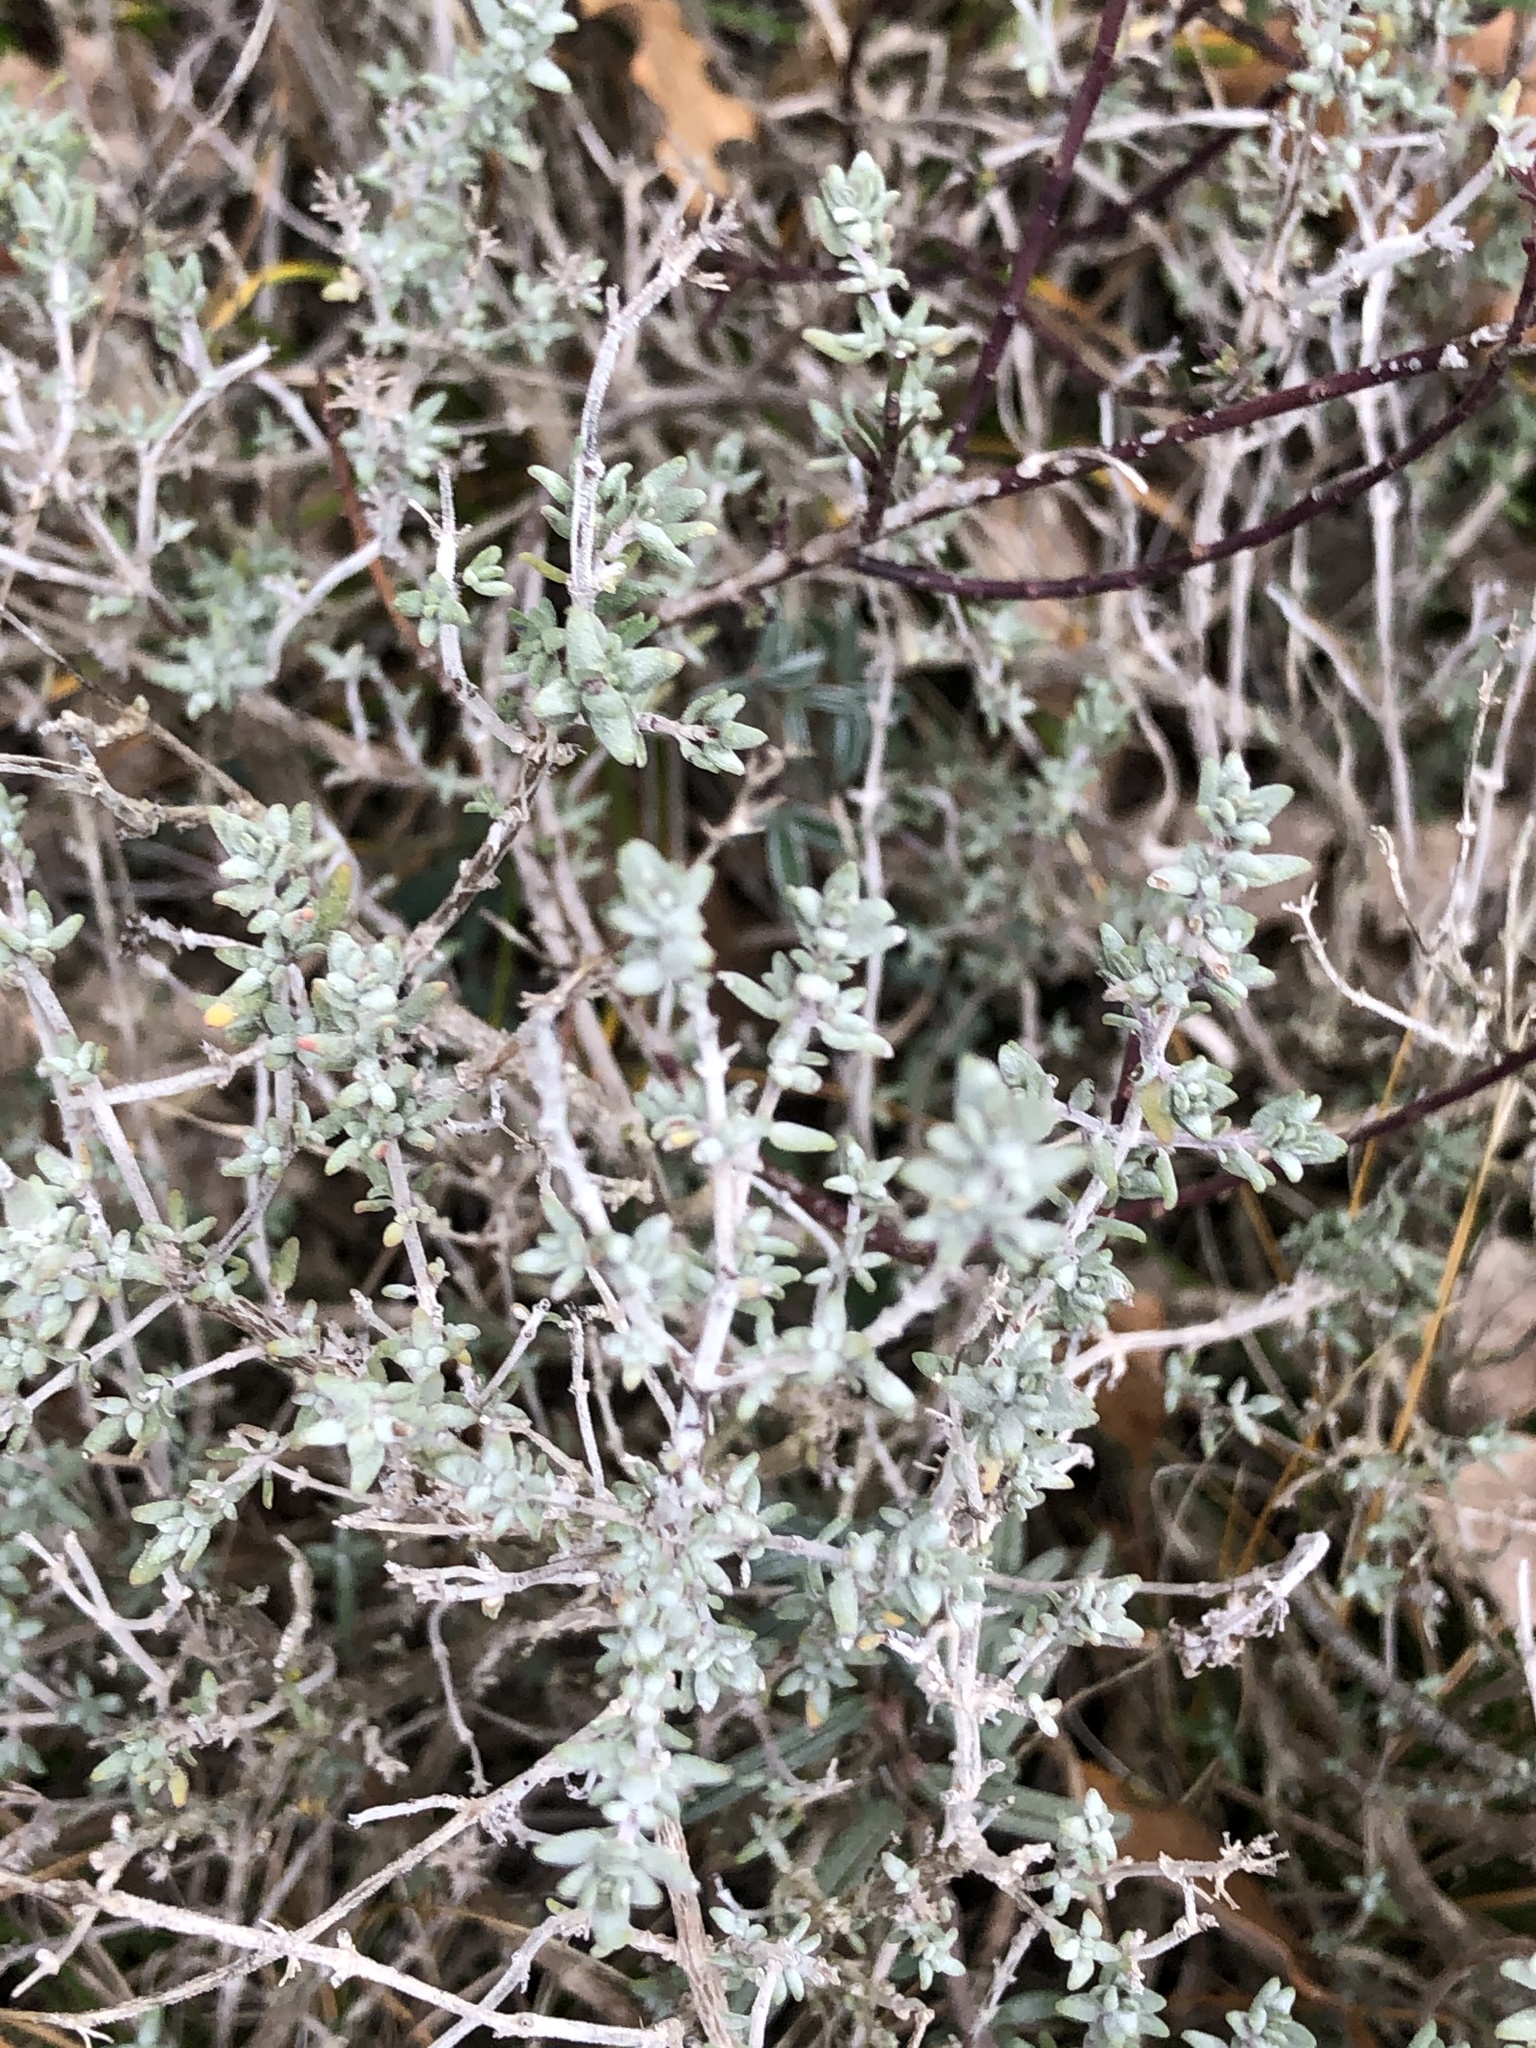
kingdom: Plantae
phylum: Tracheophyta
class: Magnoliopsida
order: Lamiales
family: Lamiaceae
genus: Thymus
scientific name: Thymus vulgaris
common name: Garden thyme
